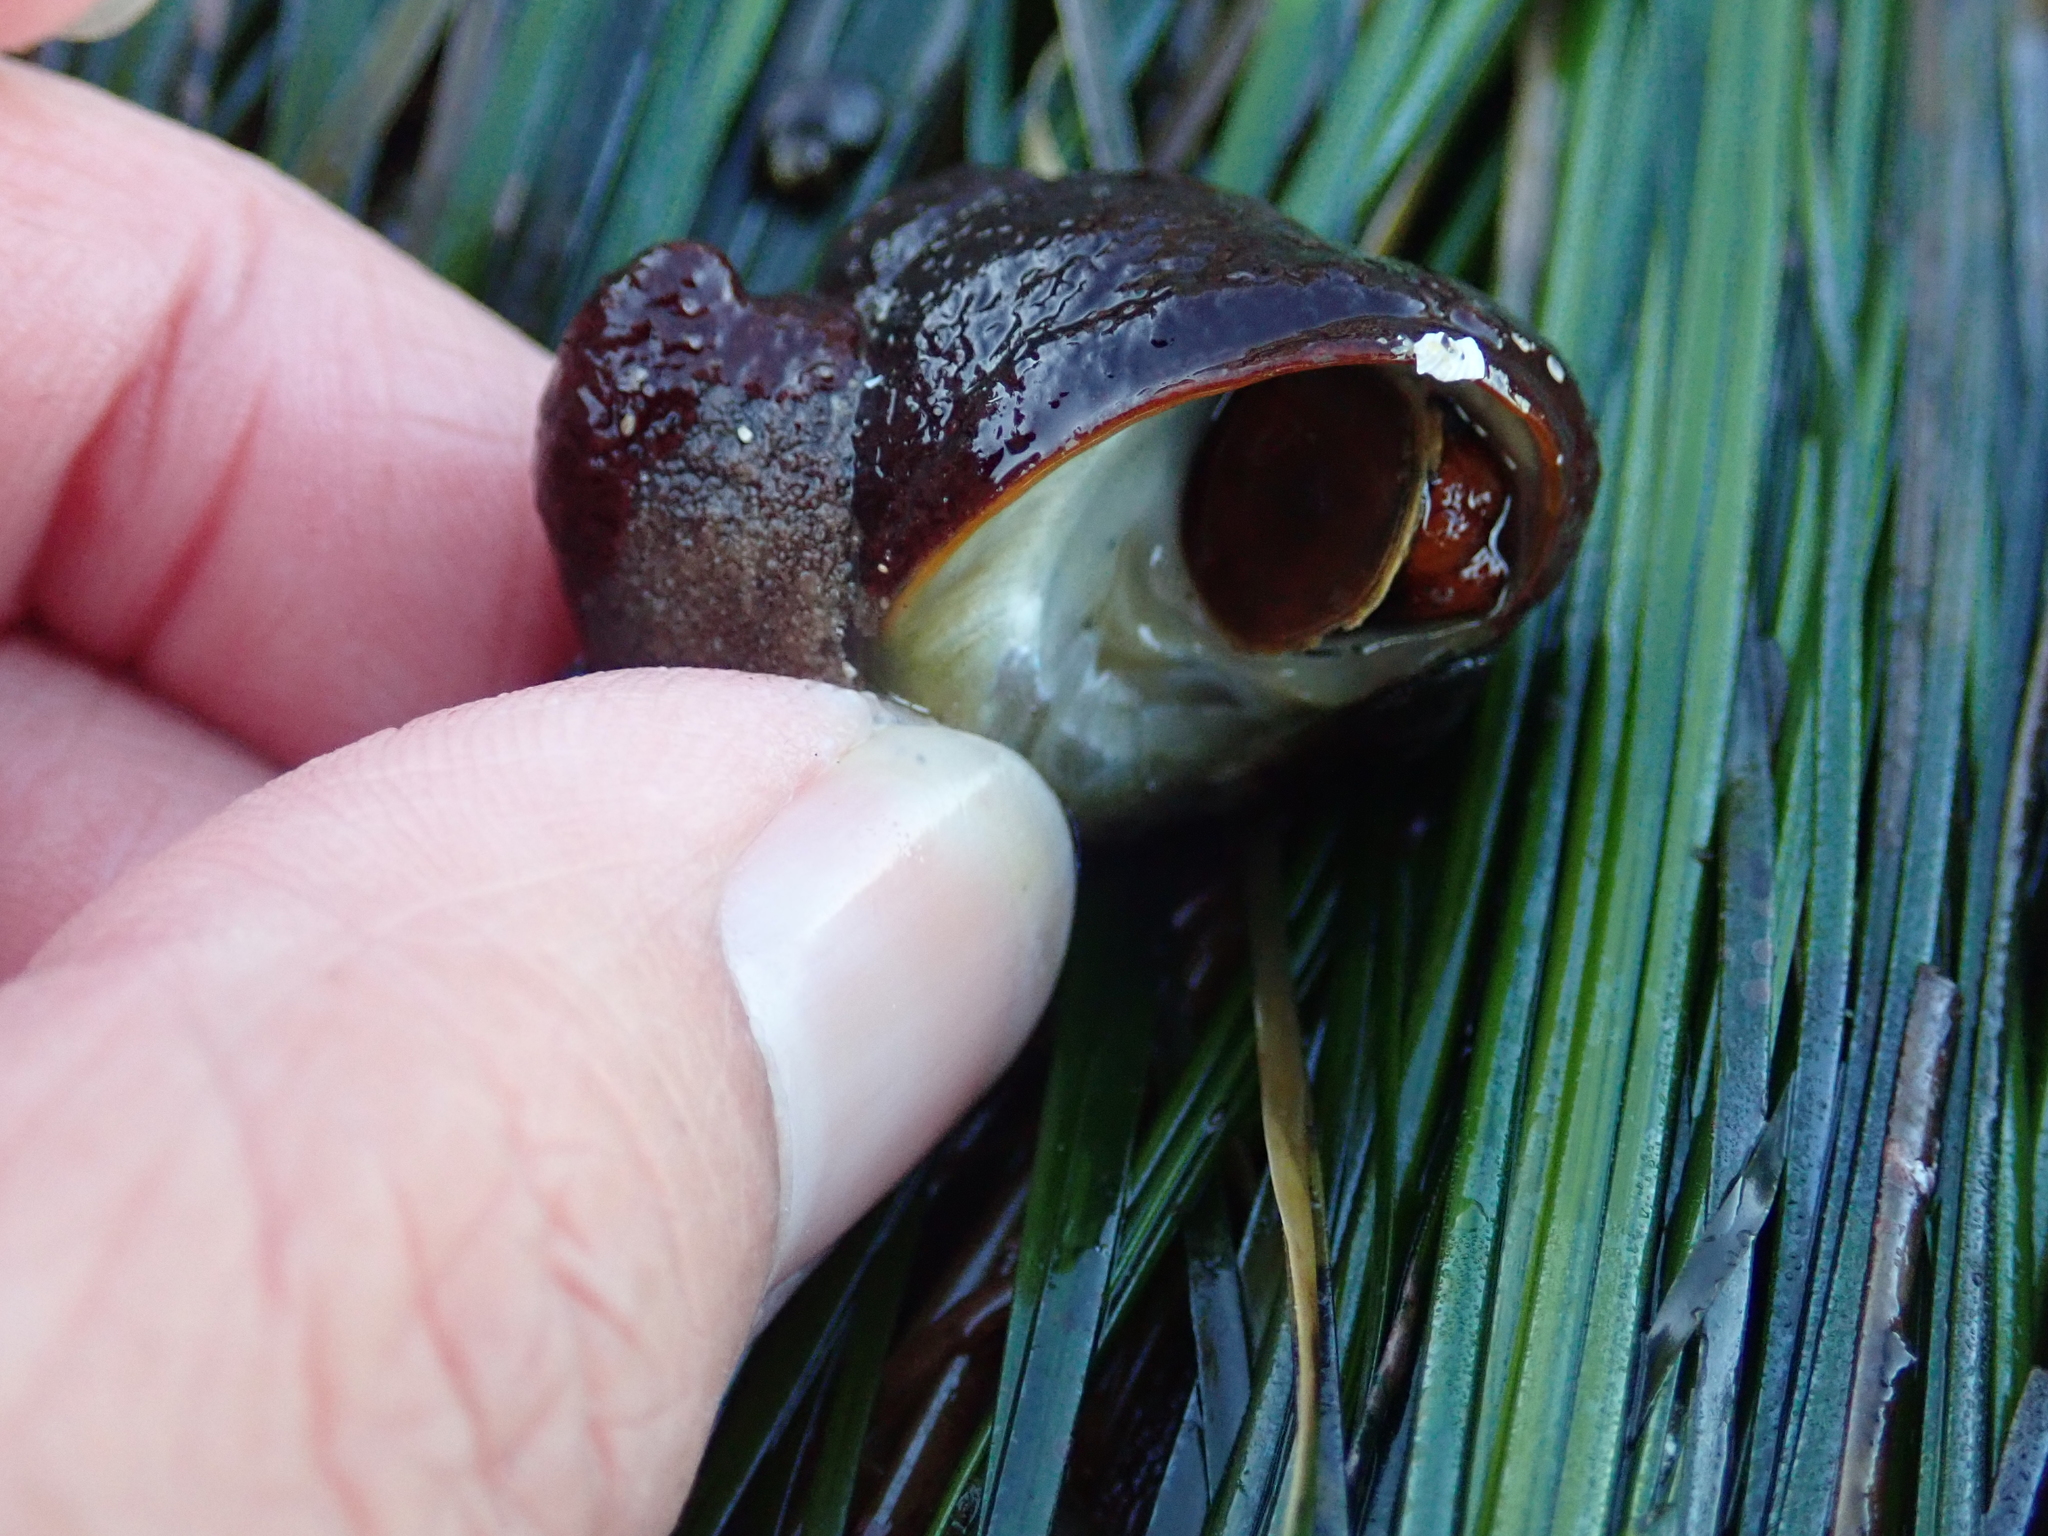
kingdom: Animalia
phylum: Mollusca
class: Gastropoda
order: Trochida
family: Tegulidae
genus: Tegula
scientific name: Tegula brunnea
